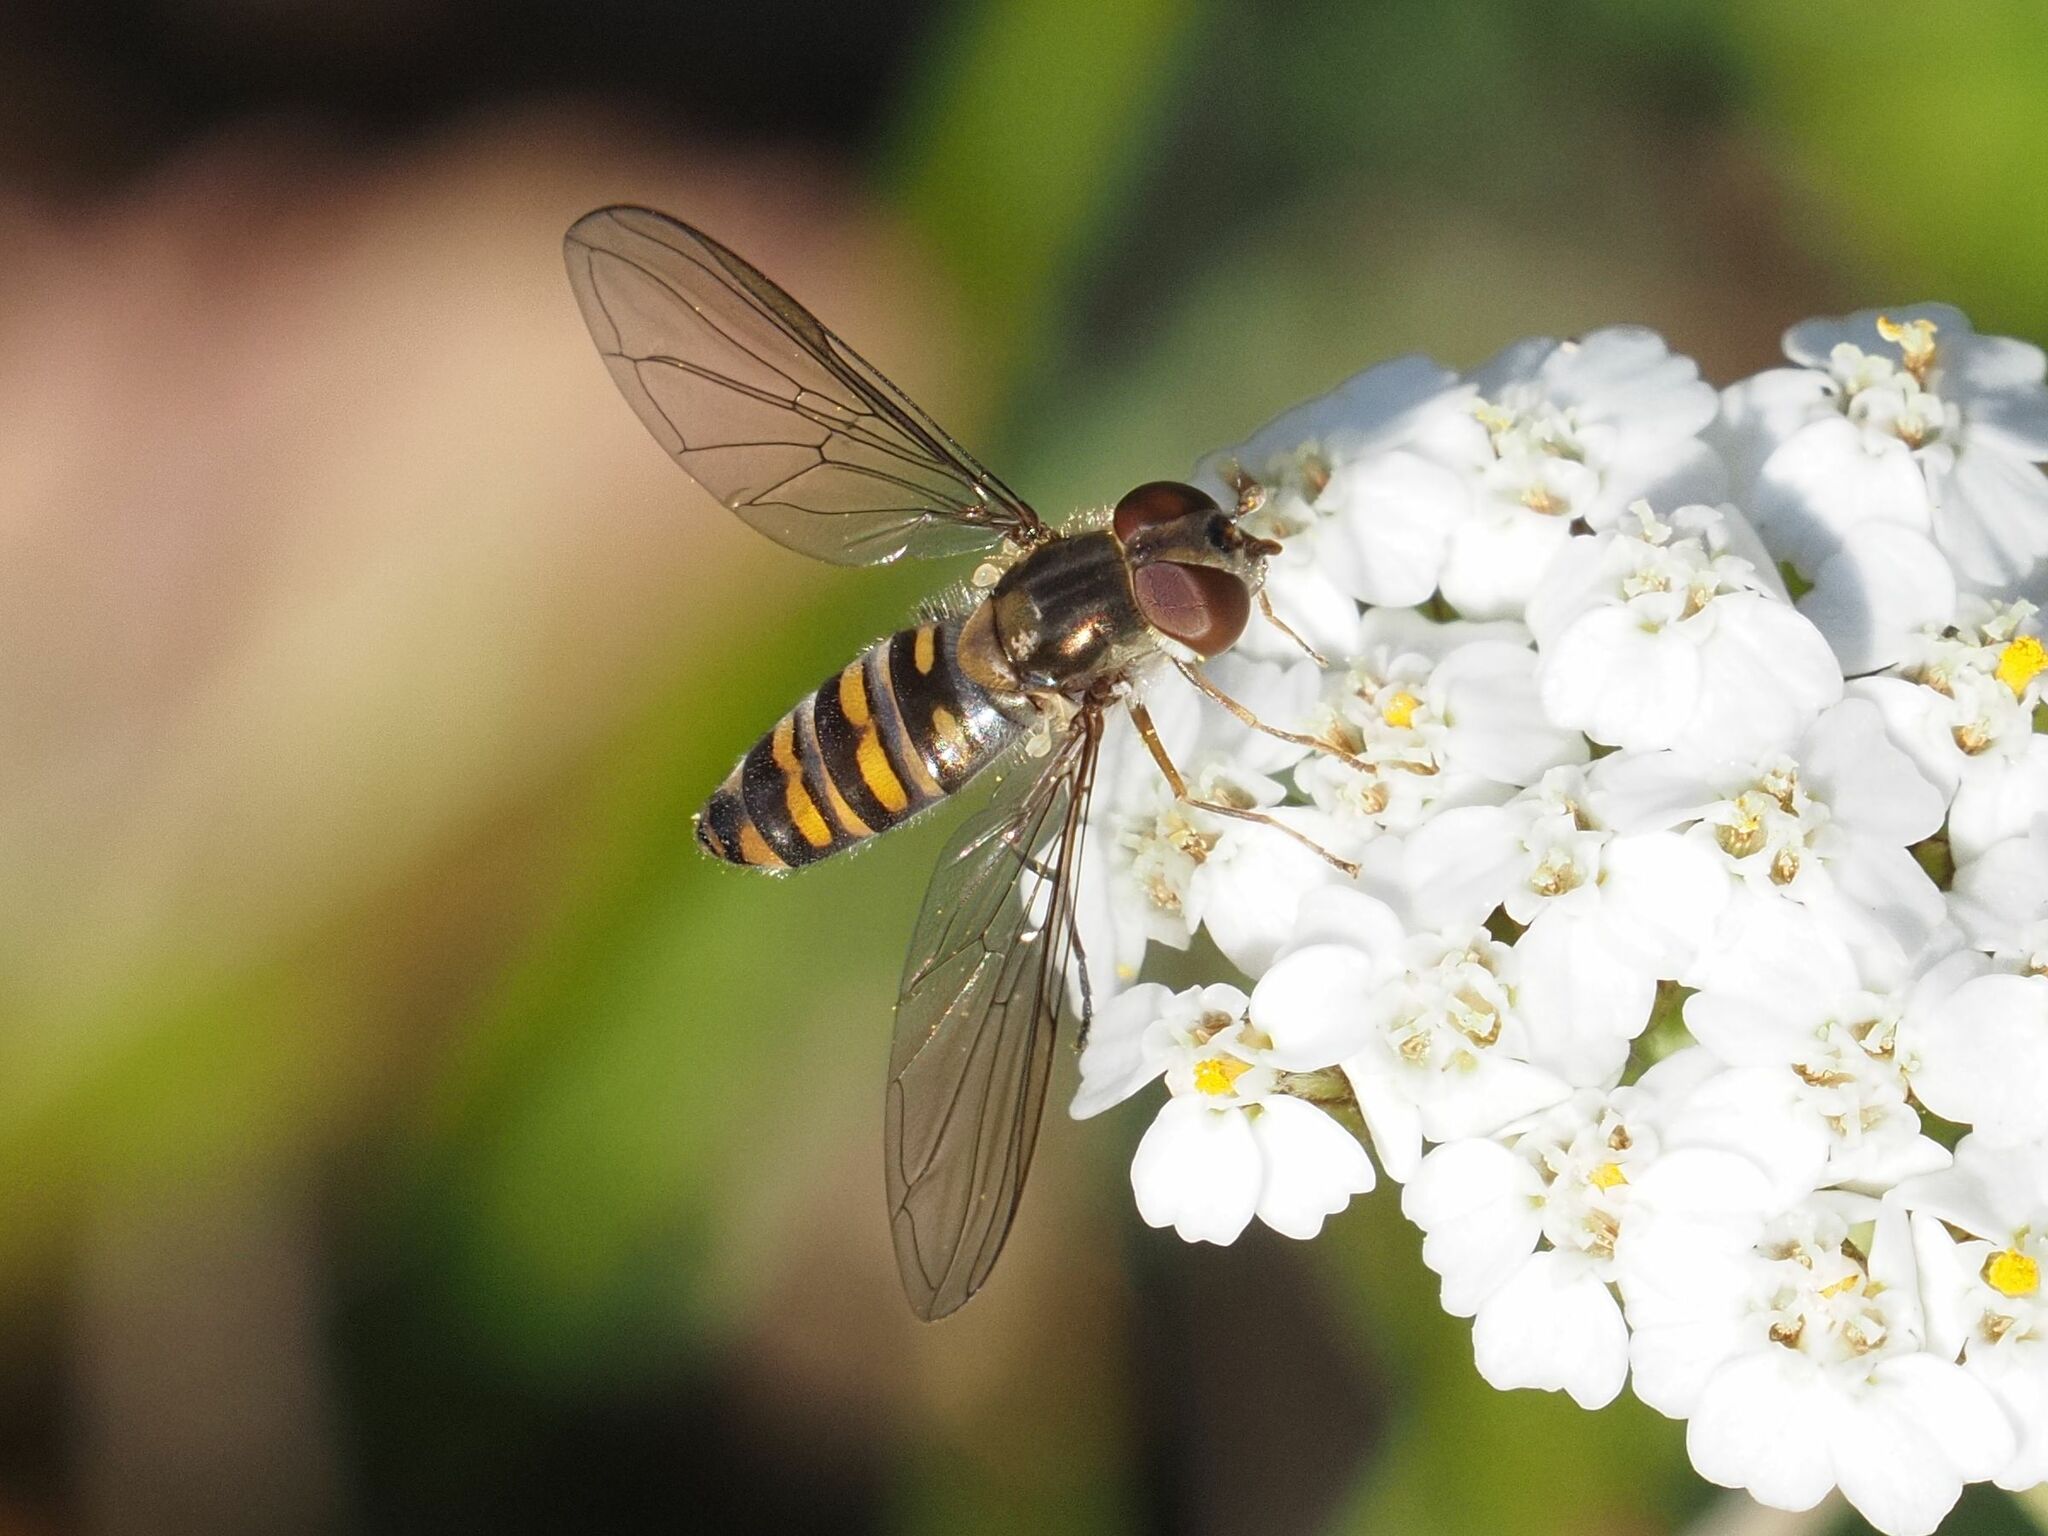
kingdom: Animalia
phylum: Arthropoda
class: Insecta
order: Diptera
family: Syrphidae
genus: Episyrphus
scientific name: Episyrphus balteatus
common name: Marmalade hoverfly
